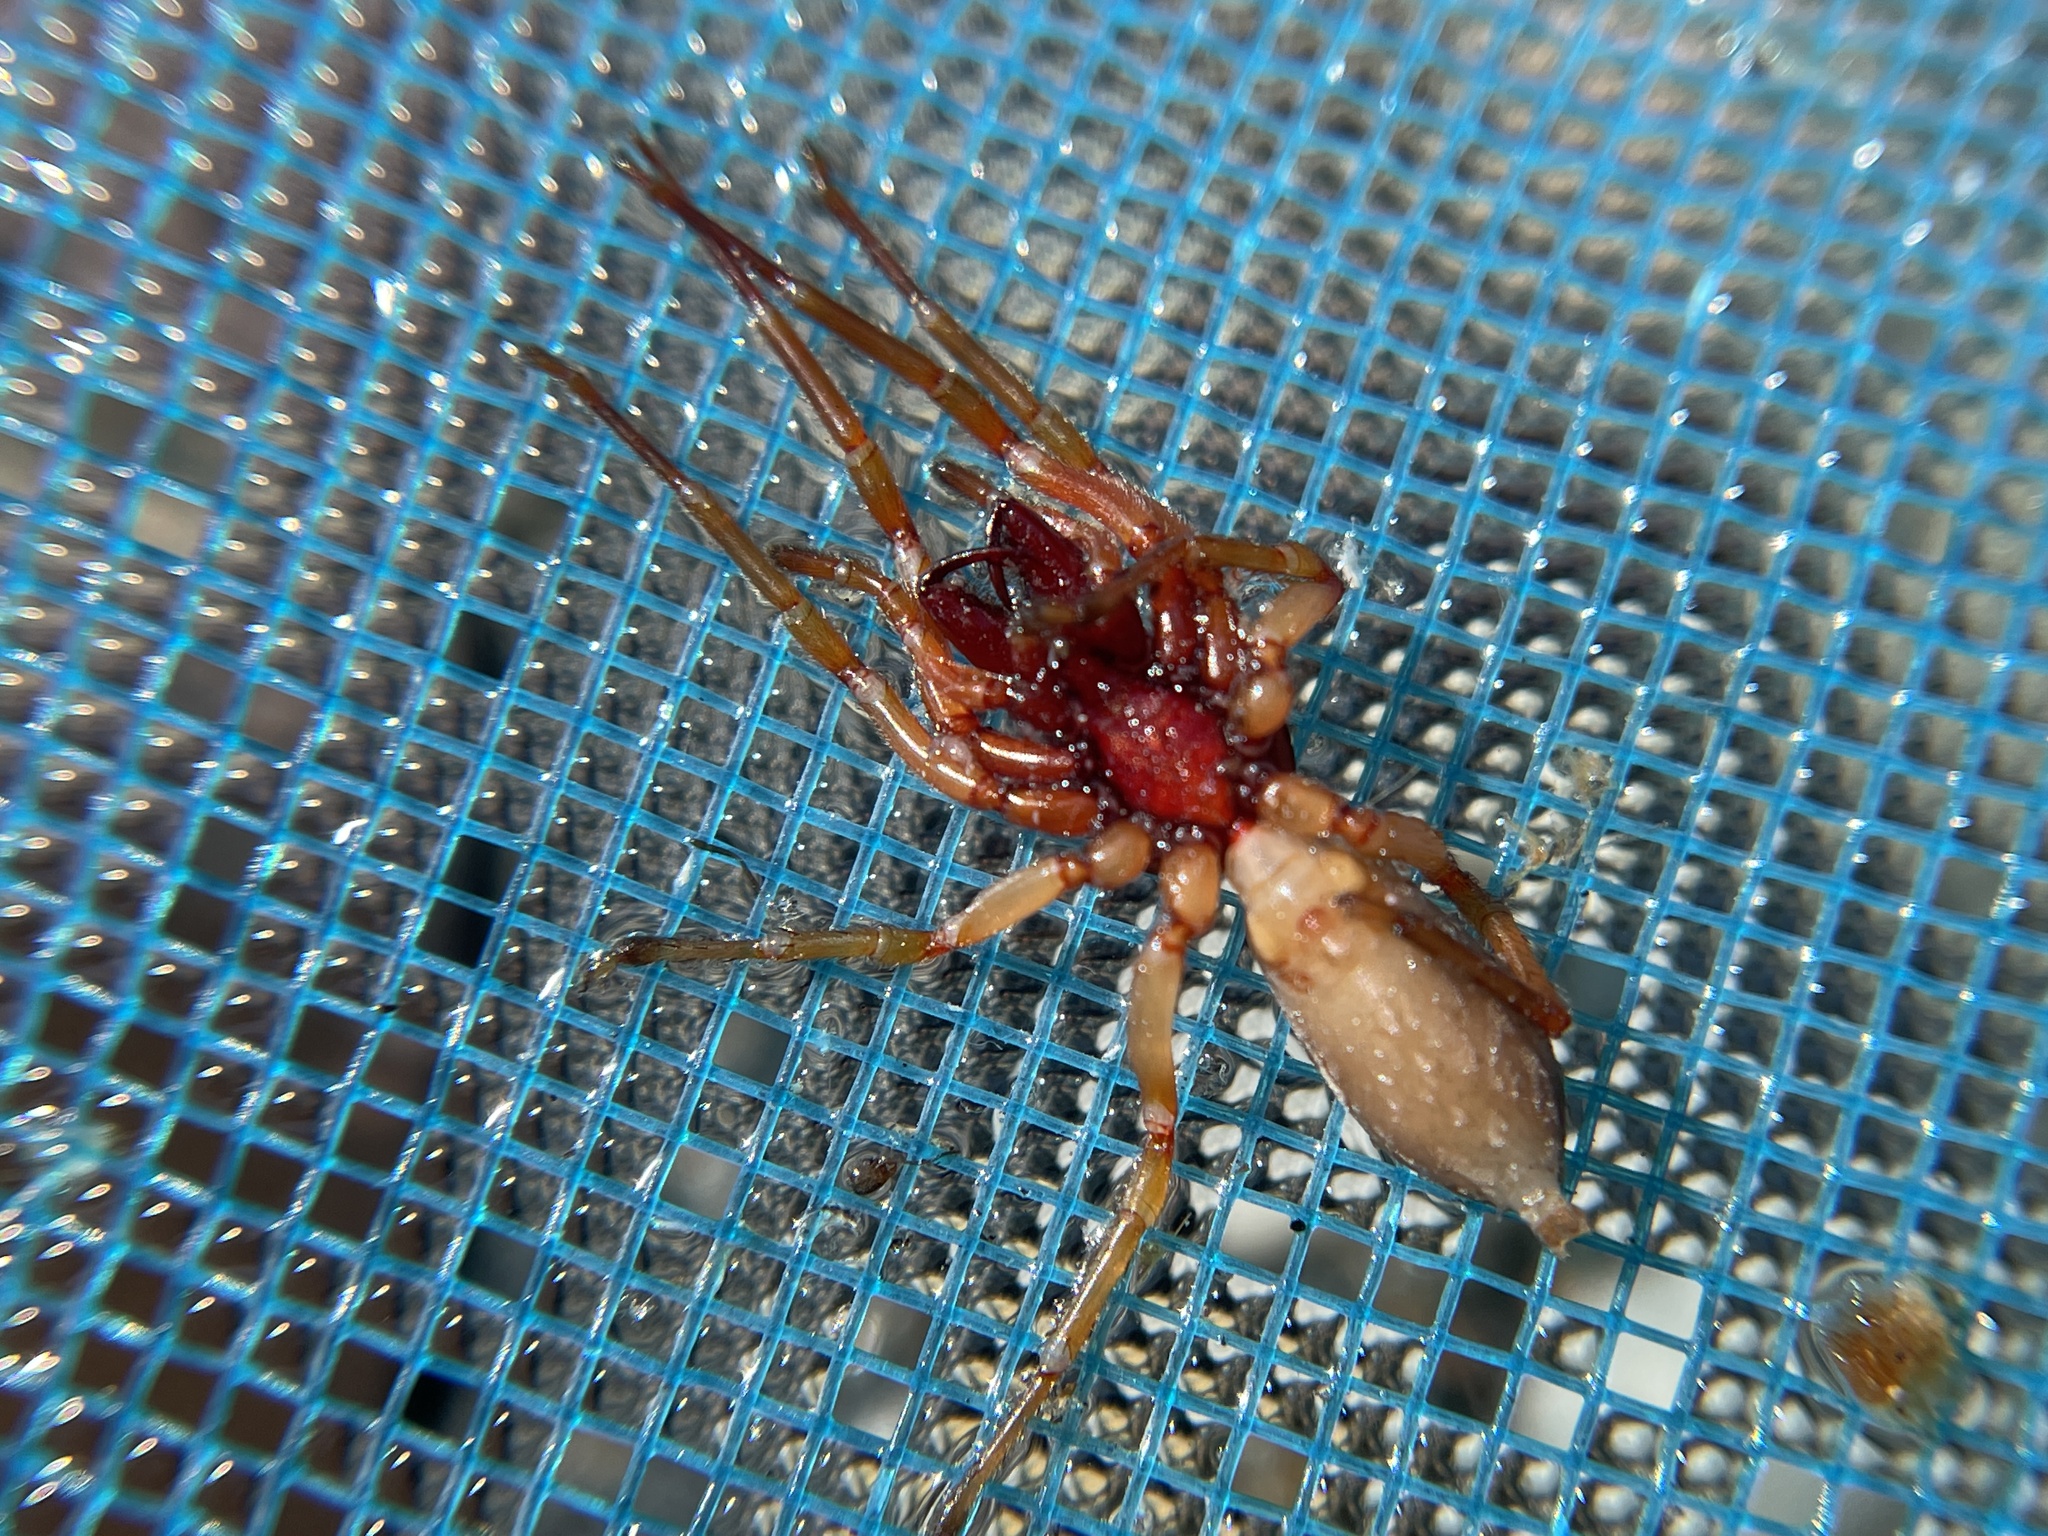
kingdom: Animalia
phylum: Arthropoda
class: Arachnida
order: Araneae
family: Dysderidae
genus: Dysdera
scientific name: Dysdera crocata
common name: Woodlouse spider
